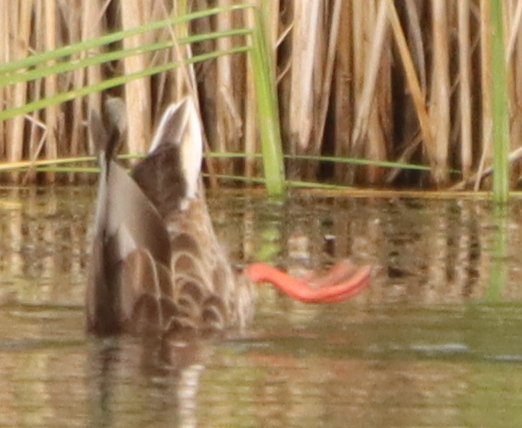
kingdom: Animalia
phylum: Chordata
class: Aves
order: Anseriformes
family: Anatidae
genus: Anas
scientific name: Anas platyrhynchos
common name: Mallard
